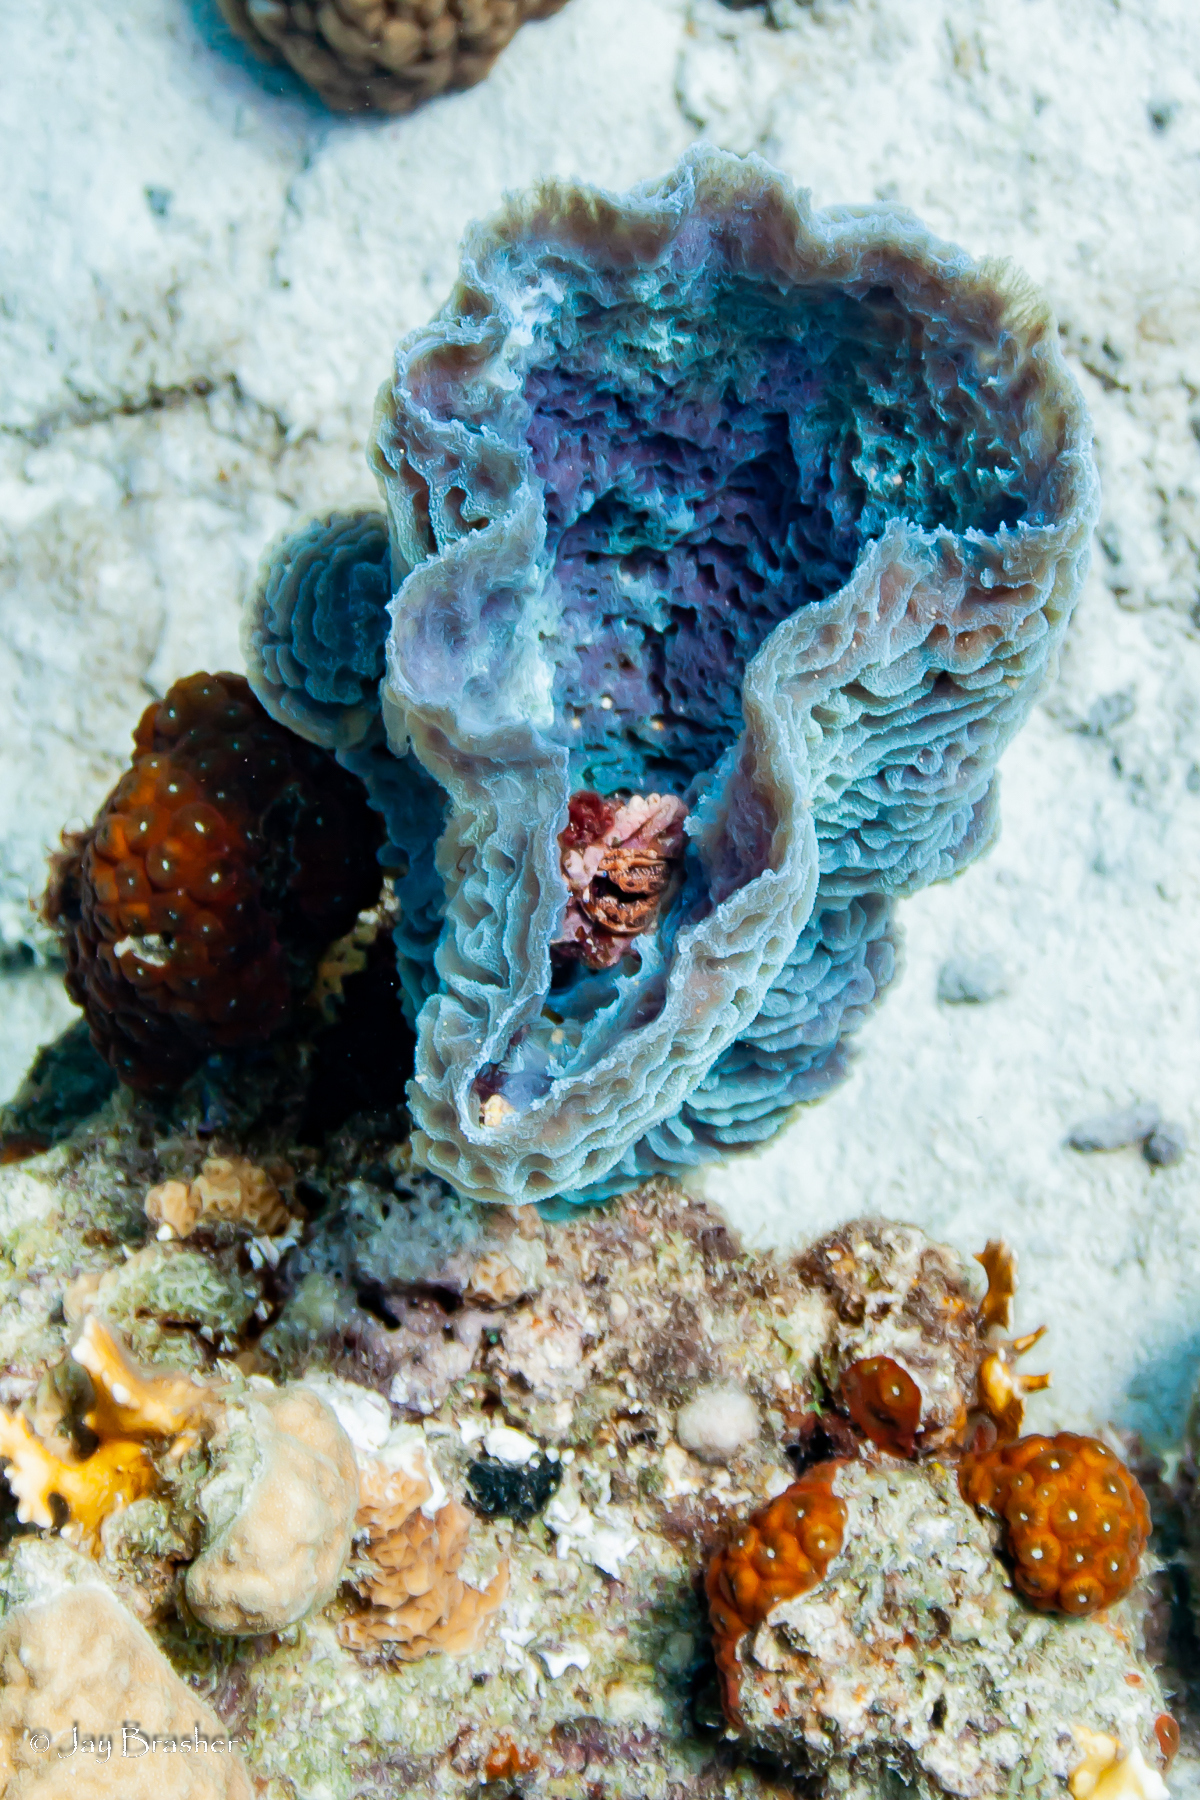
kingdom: Animalia
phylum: Porifera
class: Demospongiae
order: Haplosclerida
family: Callyspongiidae
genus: Callyspongia
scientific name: Callyspongia plicifera
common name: Azure vase sponge
